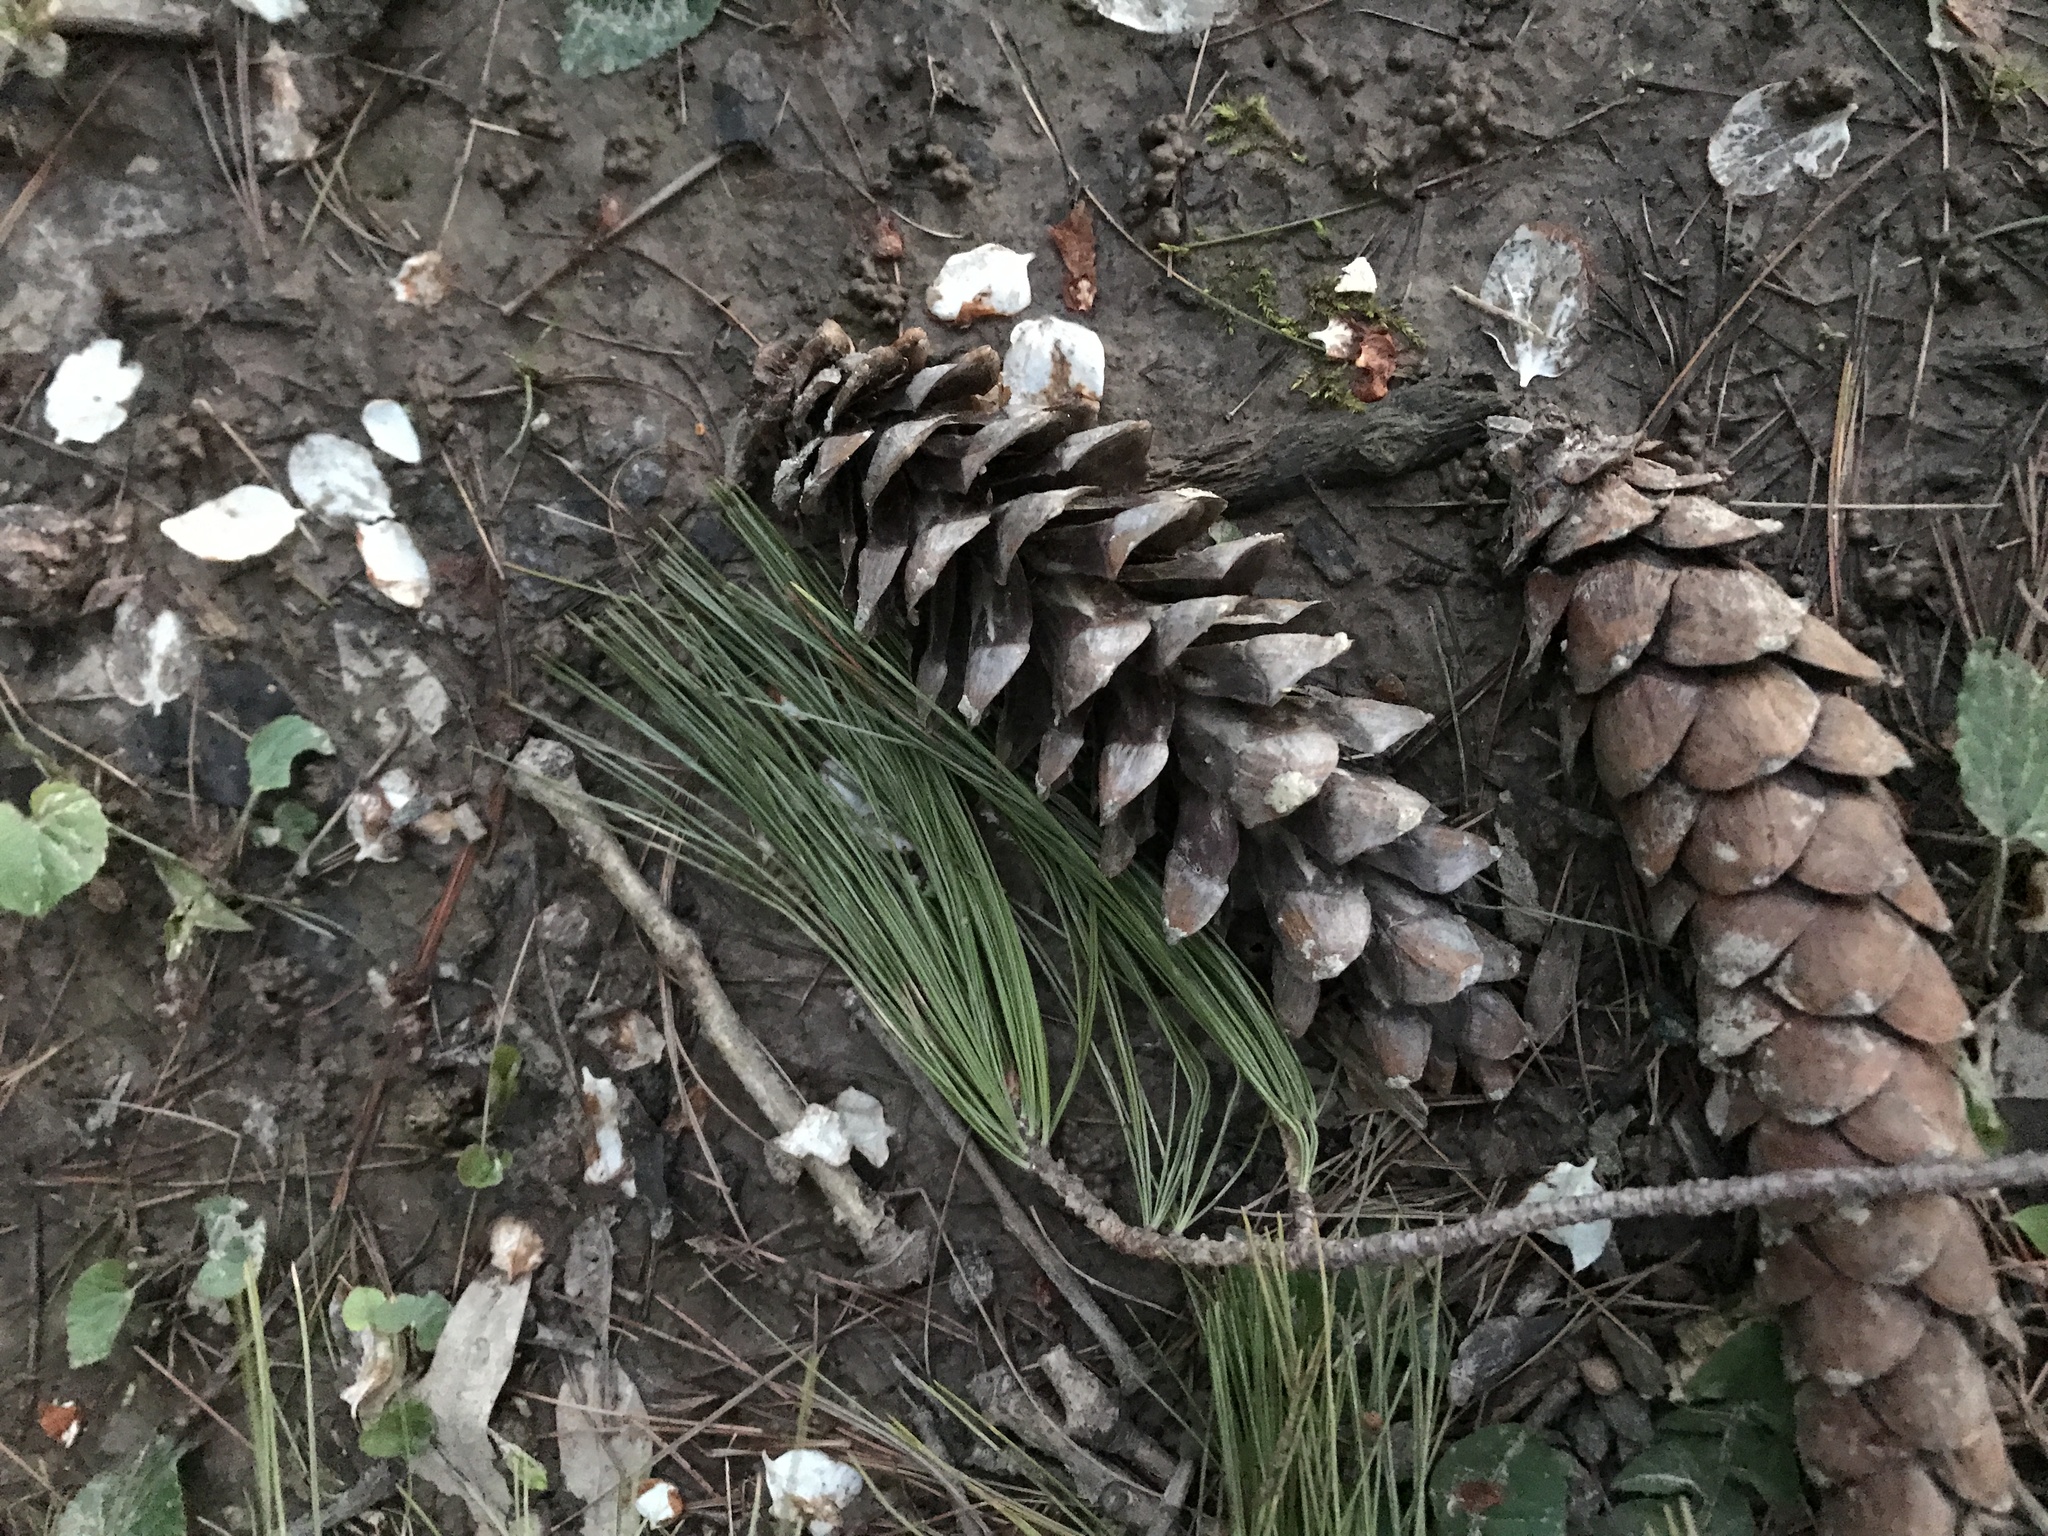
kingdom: Plantae
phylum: Tracheophyta
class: Pinopsida
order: Pinales
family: Pinaceae
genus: Pinus
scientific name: Pinus strobus
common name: Weymouth pine
